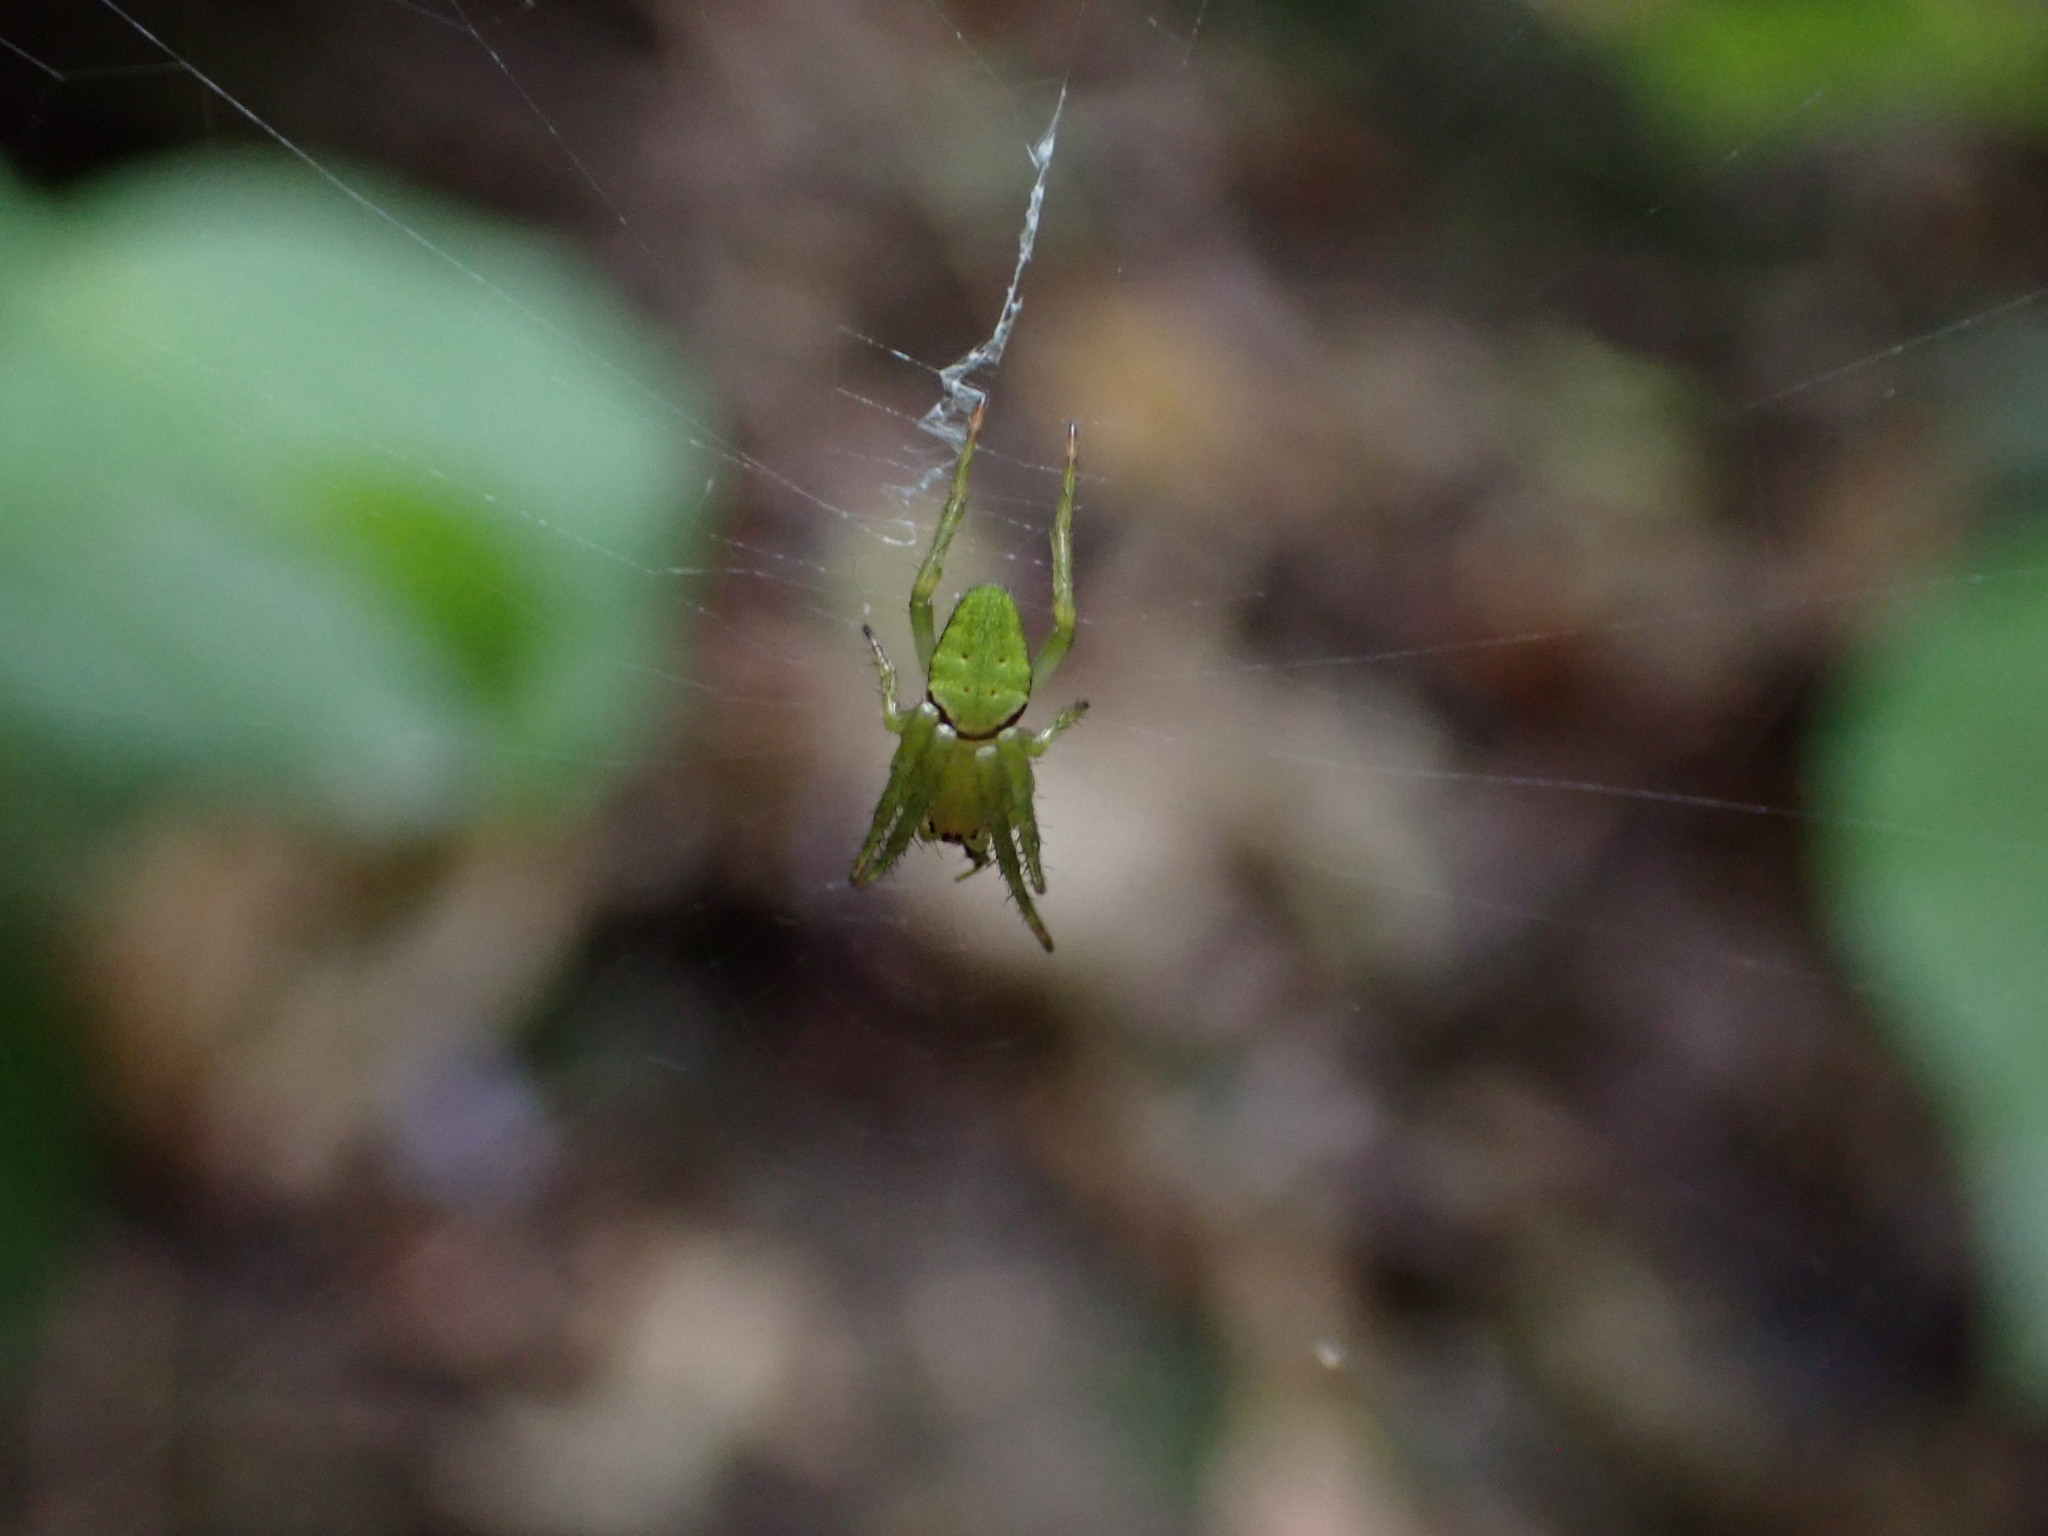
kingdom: Animalia
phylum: Arthropoda
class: Arachnida
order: Araneae
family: Araneidae
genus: Colaranea
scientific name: Colaranea viriditas
